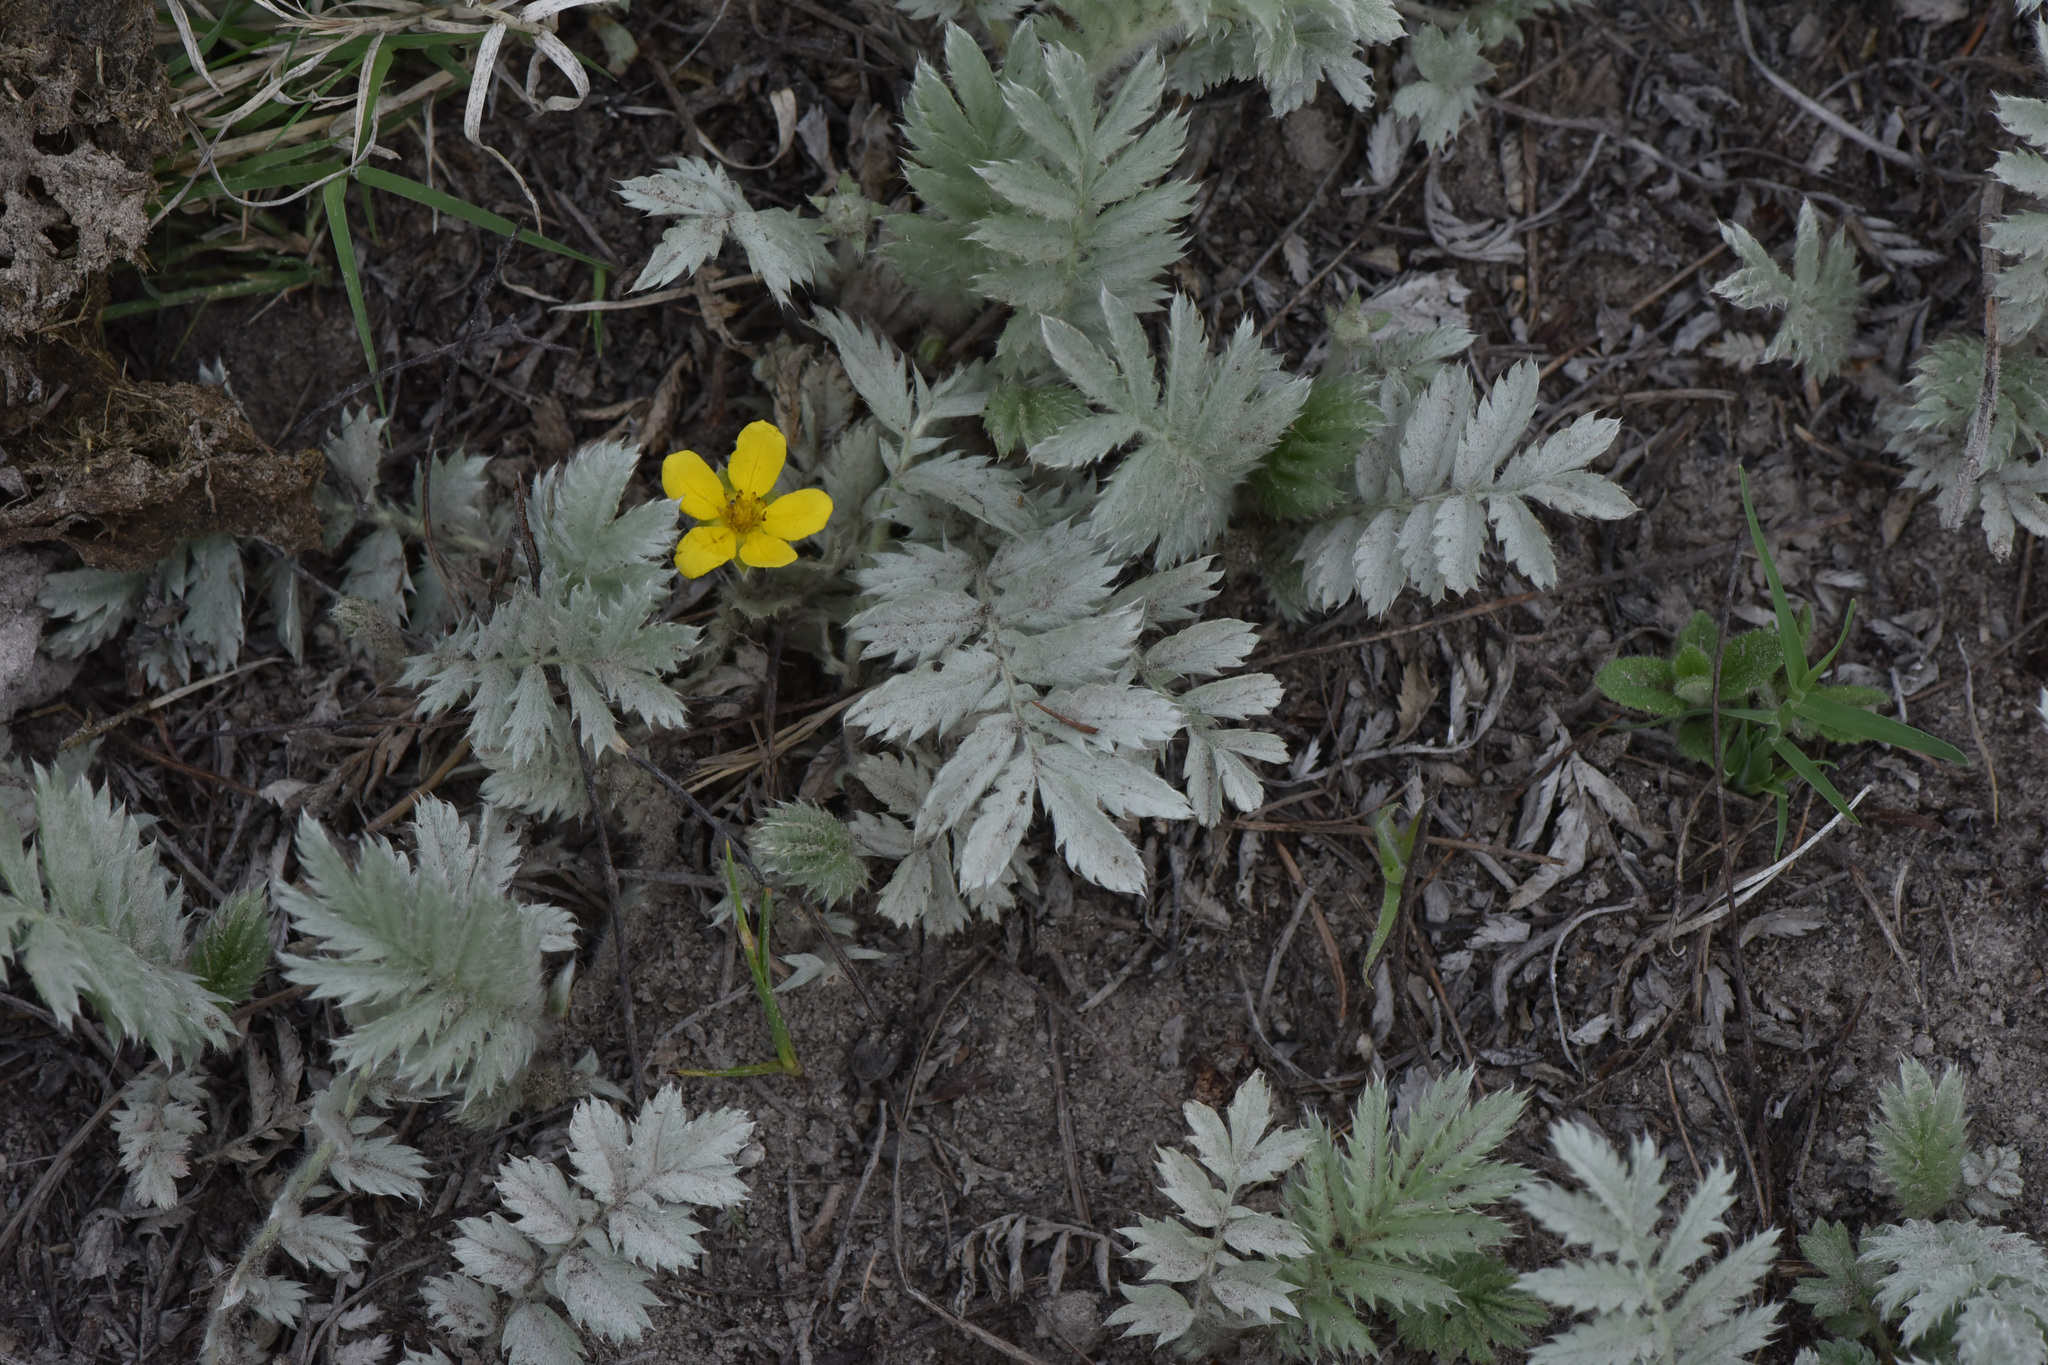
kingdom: Plantae
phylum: Tracheophyta
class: Magnoliopsida
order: Rosales
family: Rosaceae
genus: Argentina
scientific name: Argentina anserina
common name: Common silverweed
